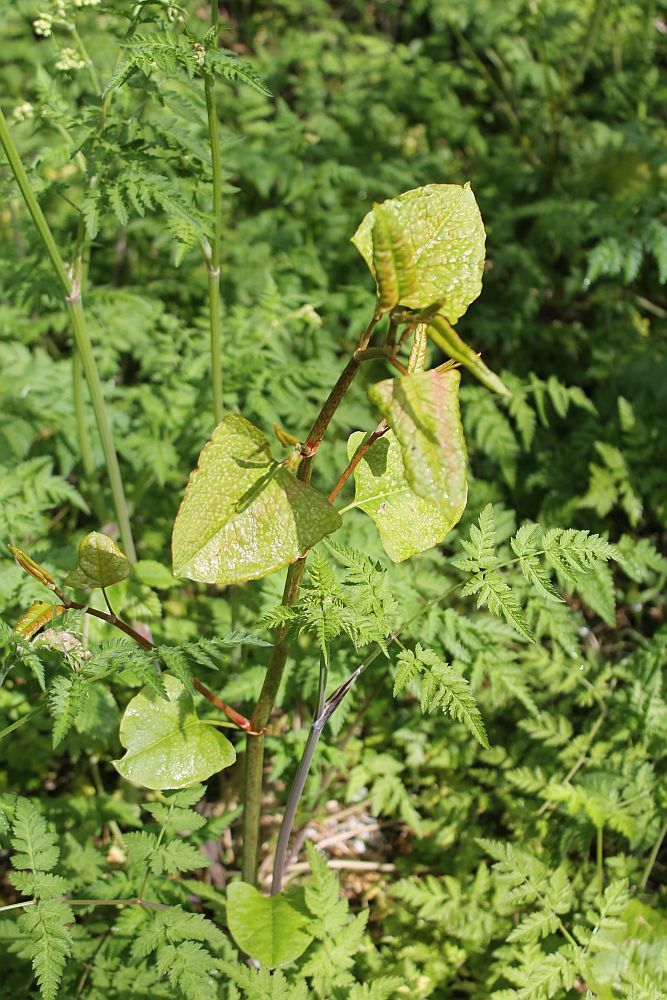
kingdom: Plantae
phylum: Tracheophyta
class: Magnoliopsida
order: Caryophyllales
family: Polygonaceae
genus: Reynoutria
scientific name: Reynoutria japonica
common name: Japanese knotweed
